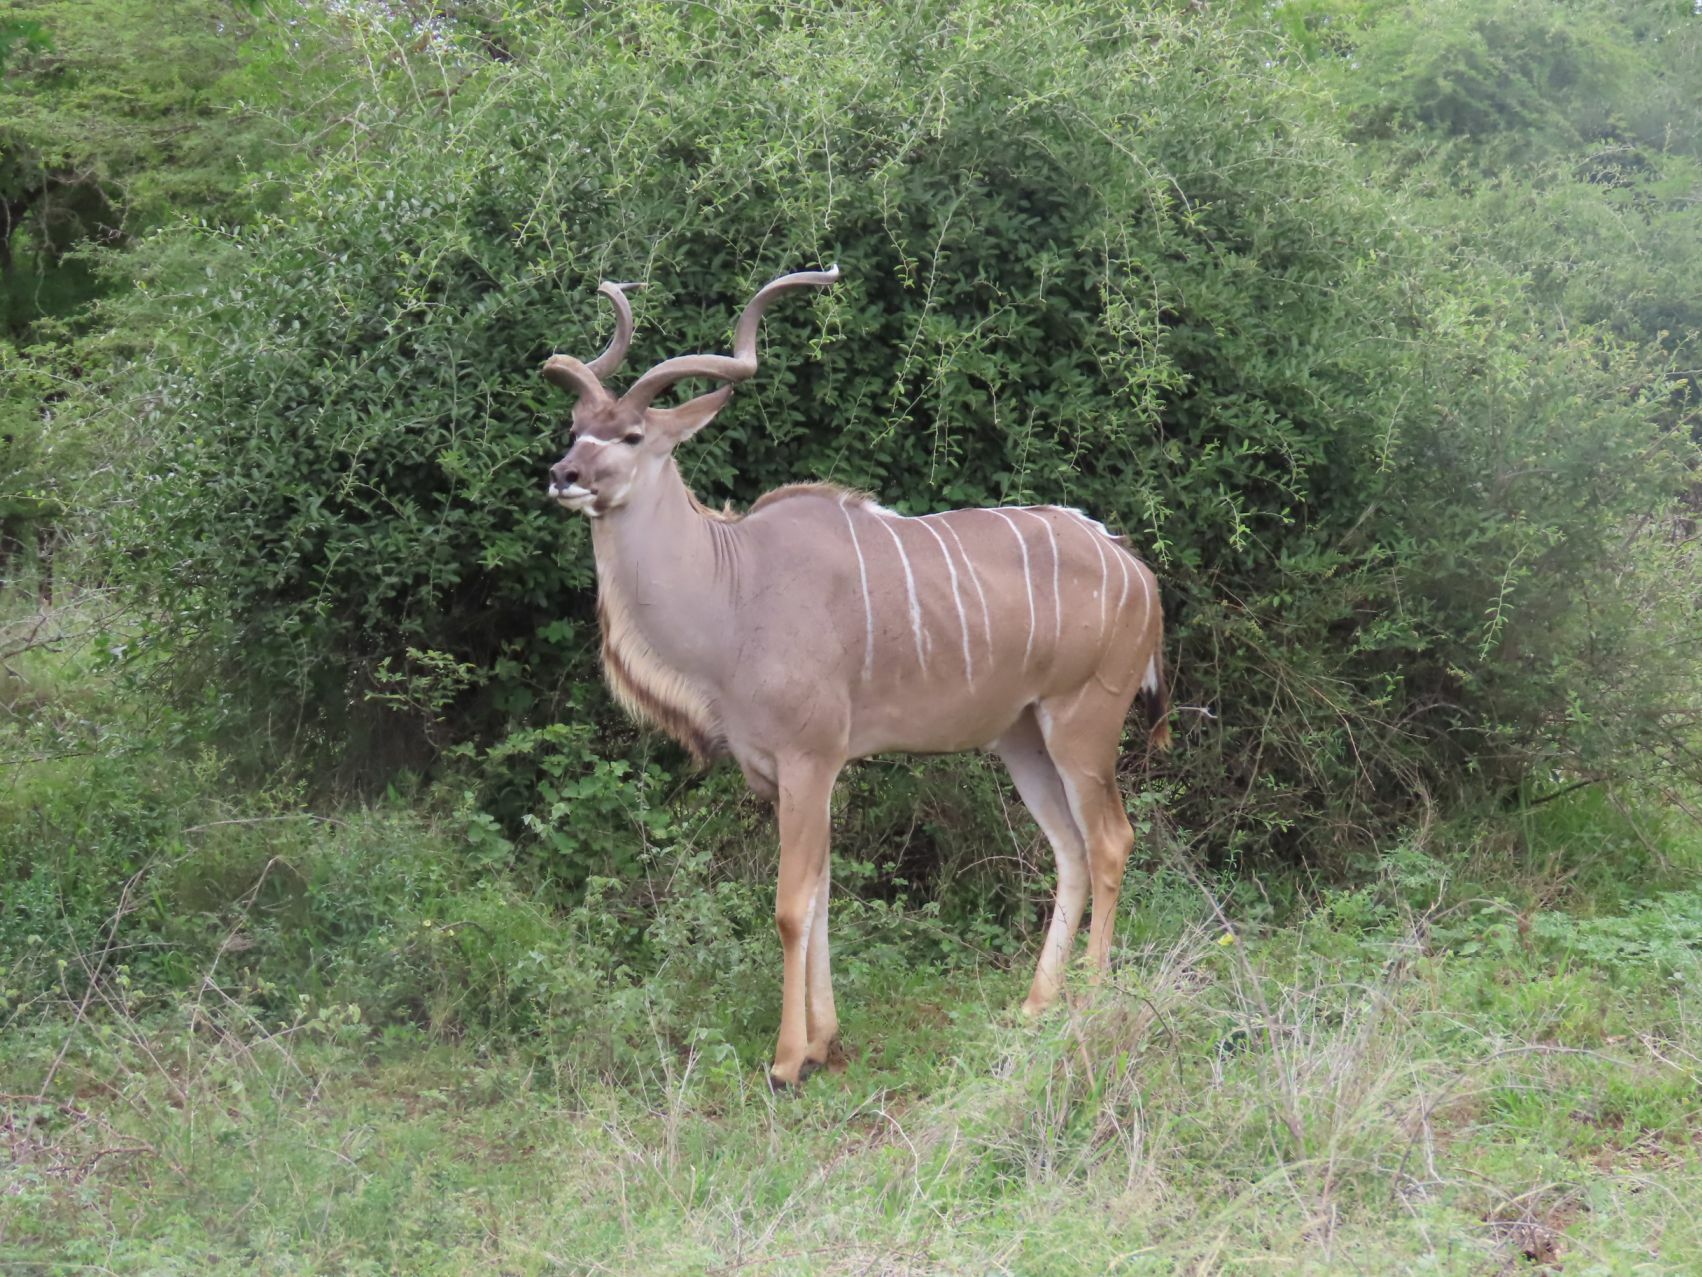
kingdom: Animalia
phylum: Chordata
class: Mammalia
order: Artiodactyla
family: Bovidae
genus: Tragelaphus
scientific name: Tragelaphus strepsiceros
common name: Greater kudu
